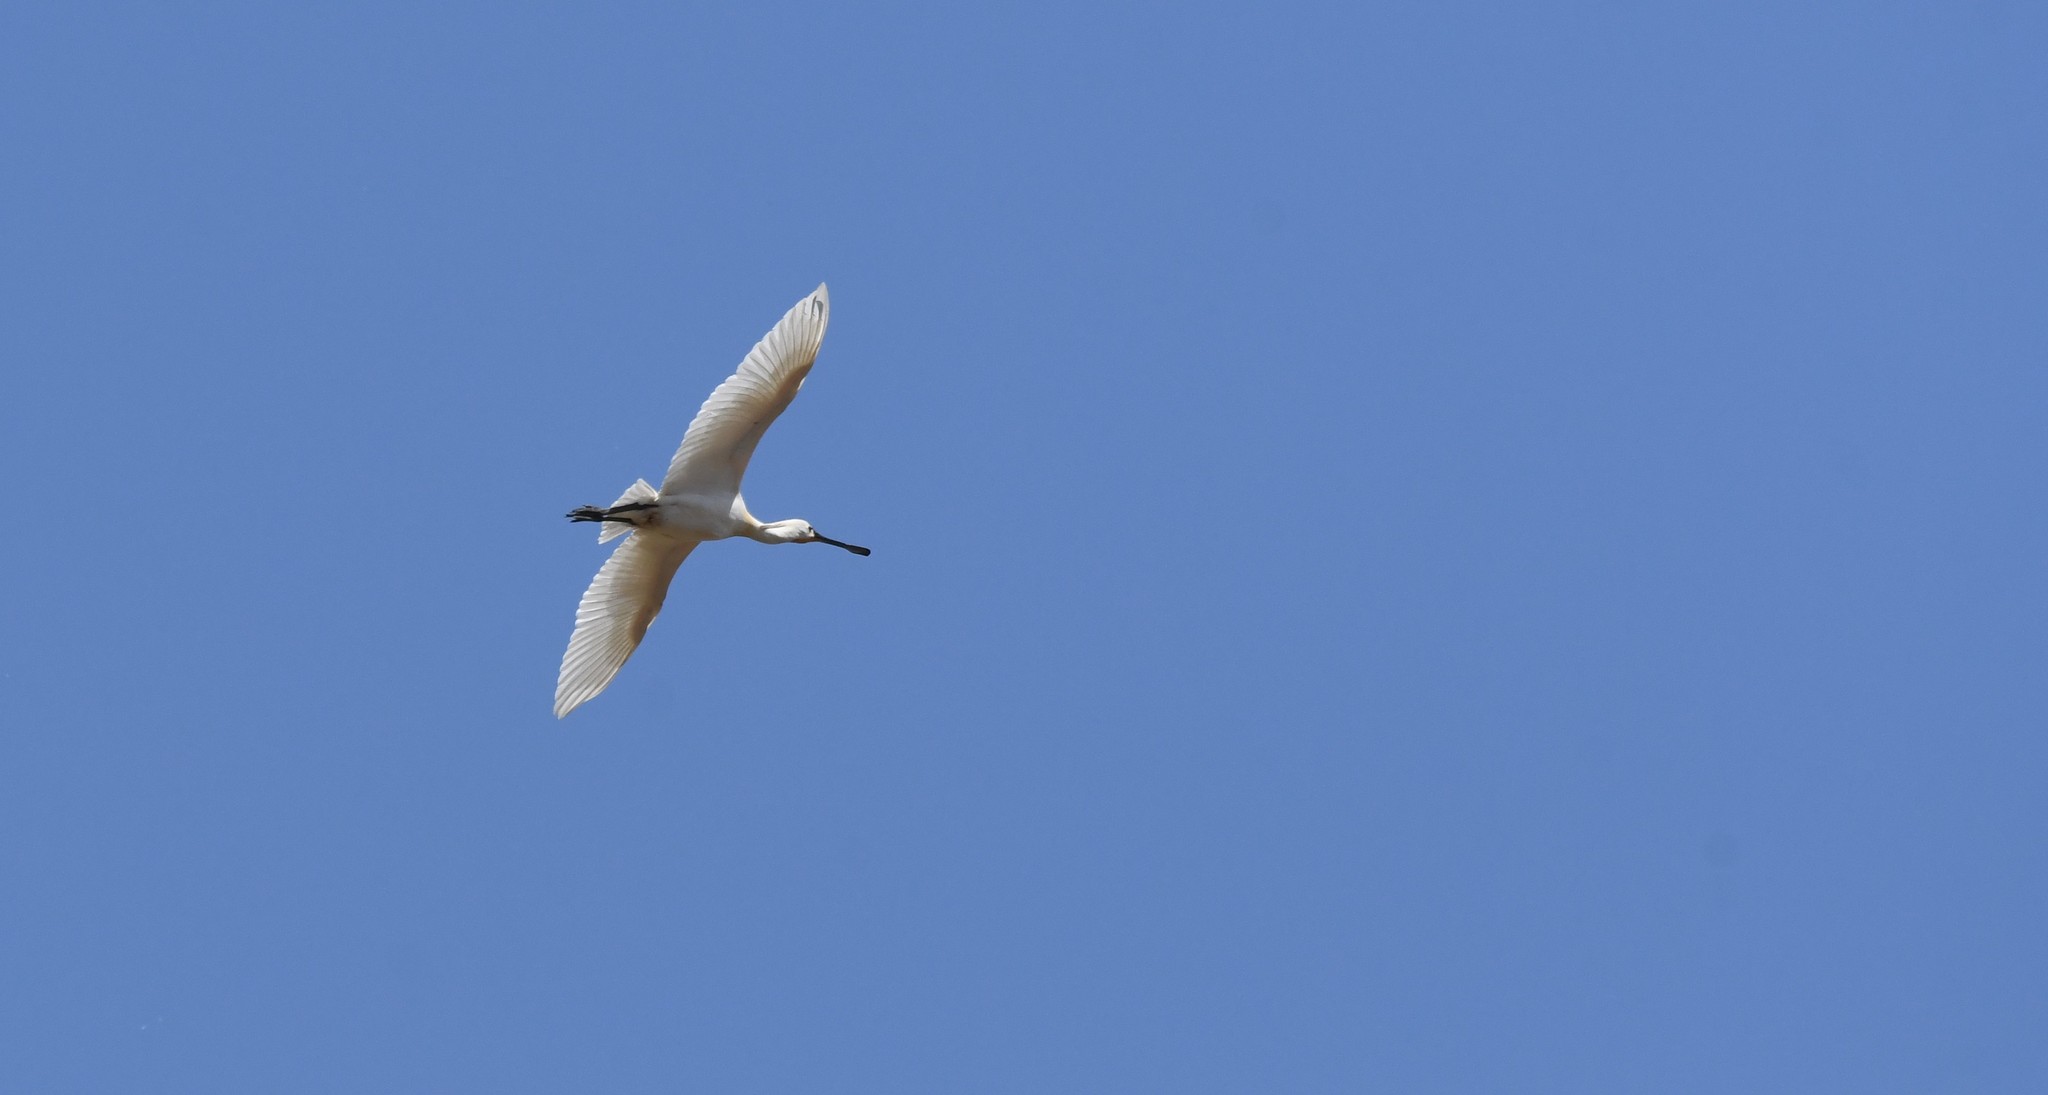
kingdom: Animalia
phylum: Chordata
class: Aves
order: Pelecaniformes
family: Threskiornithidae
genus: Platalea
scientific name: Platalea leucorodia
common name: Eurasian spoonbill
